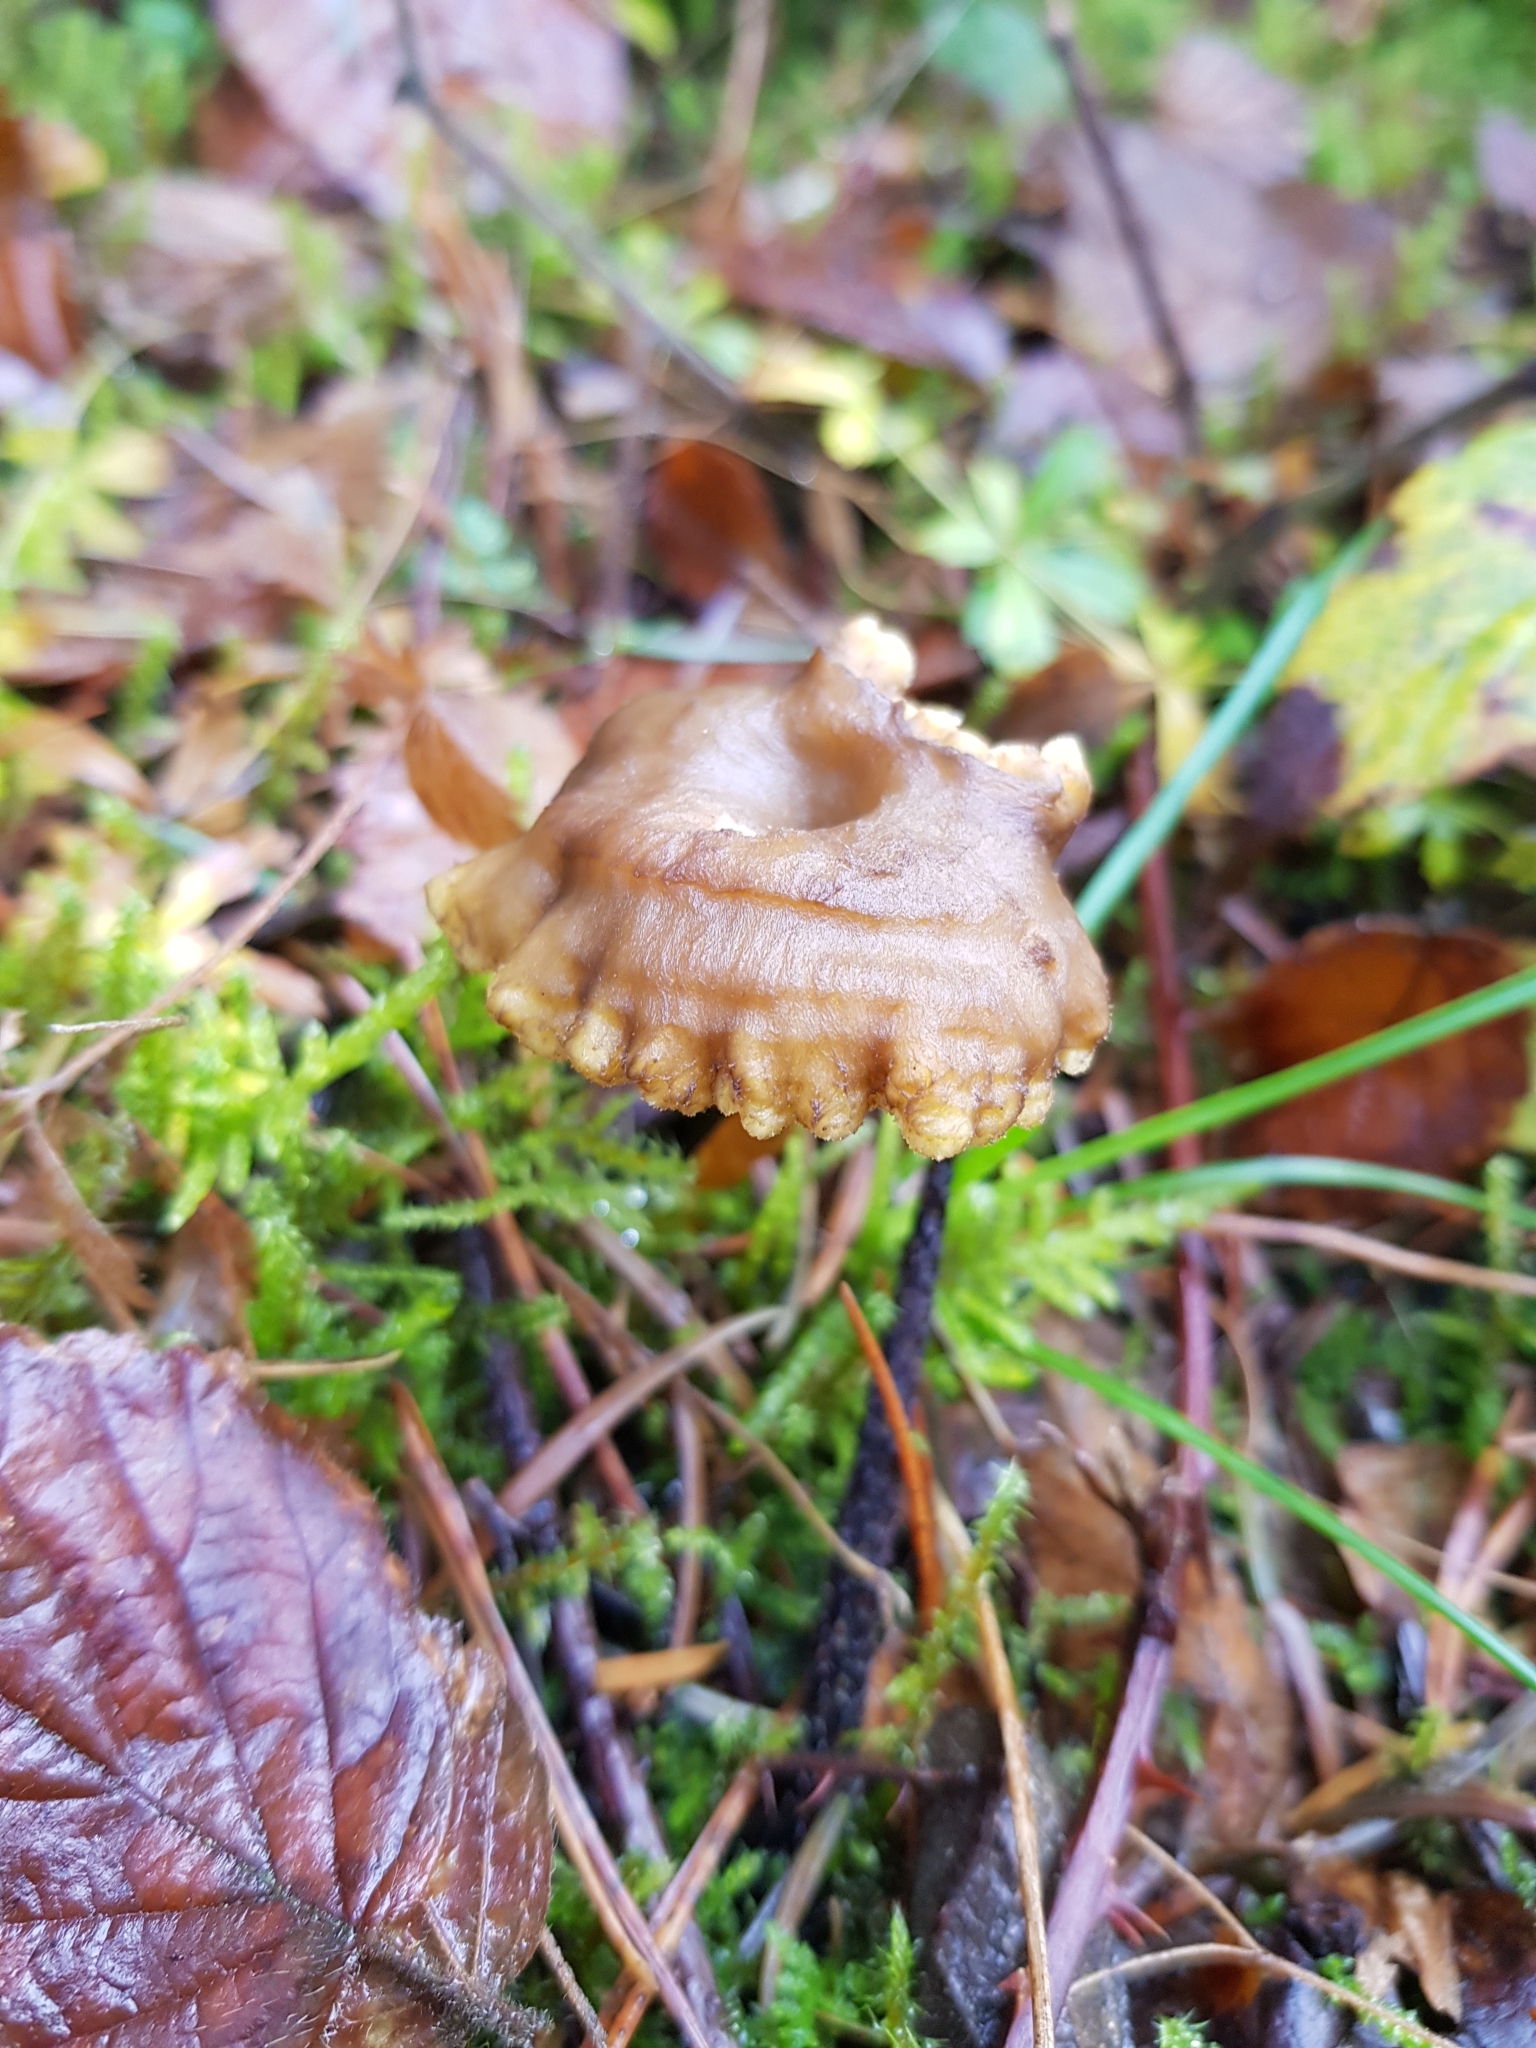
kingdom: Fungi
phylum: Basidiomycota
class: Agaricomycetes
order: Cantharellales
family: Hydnaceae
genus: Craterellus
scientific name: Craterellus tubaeformis
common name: Yellowfoot
